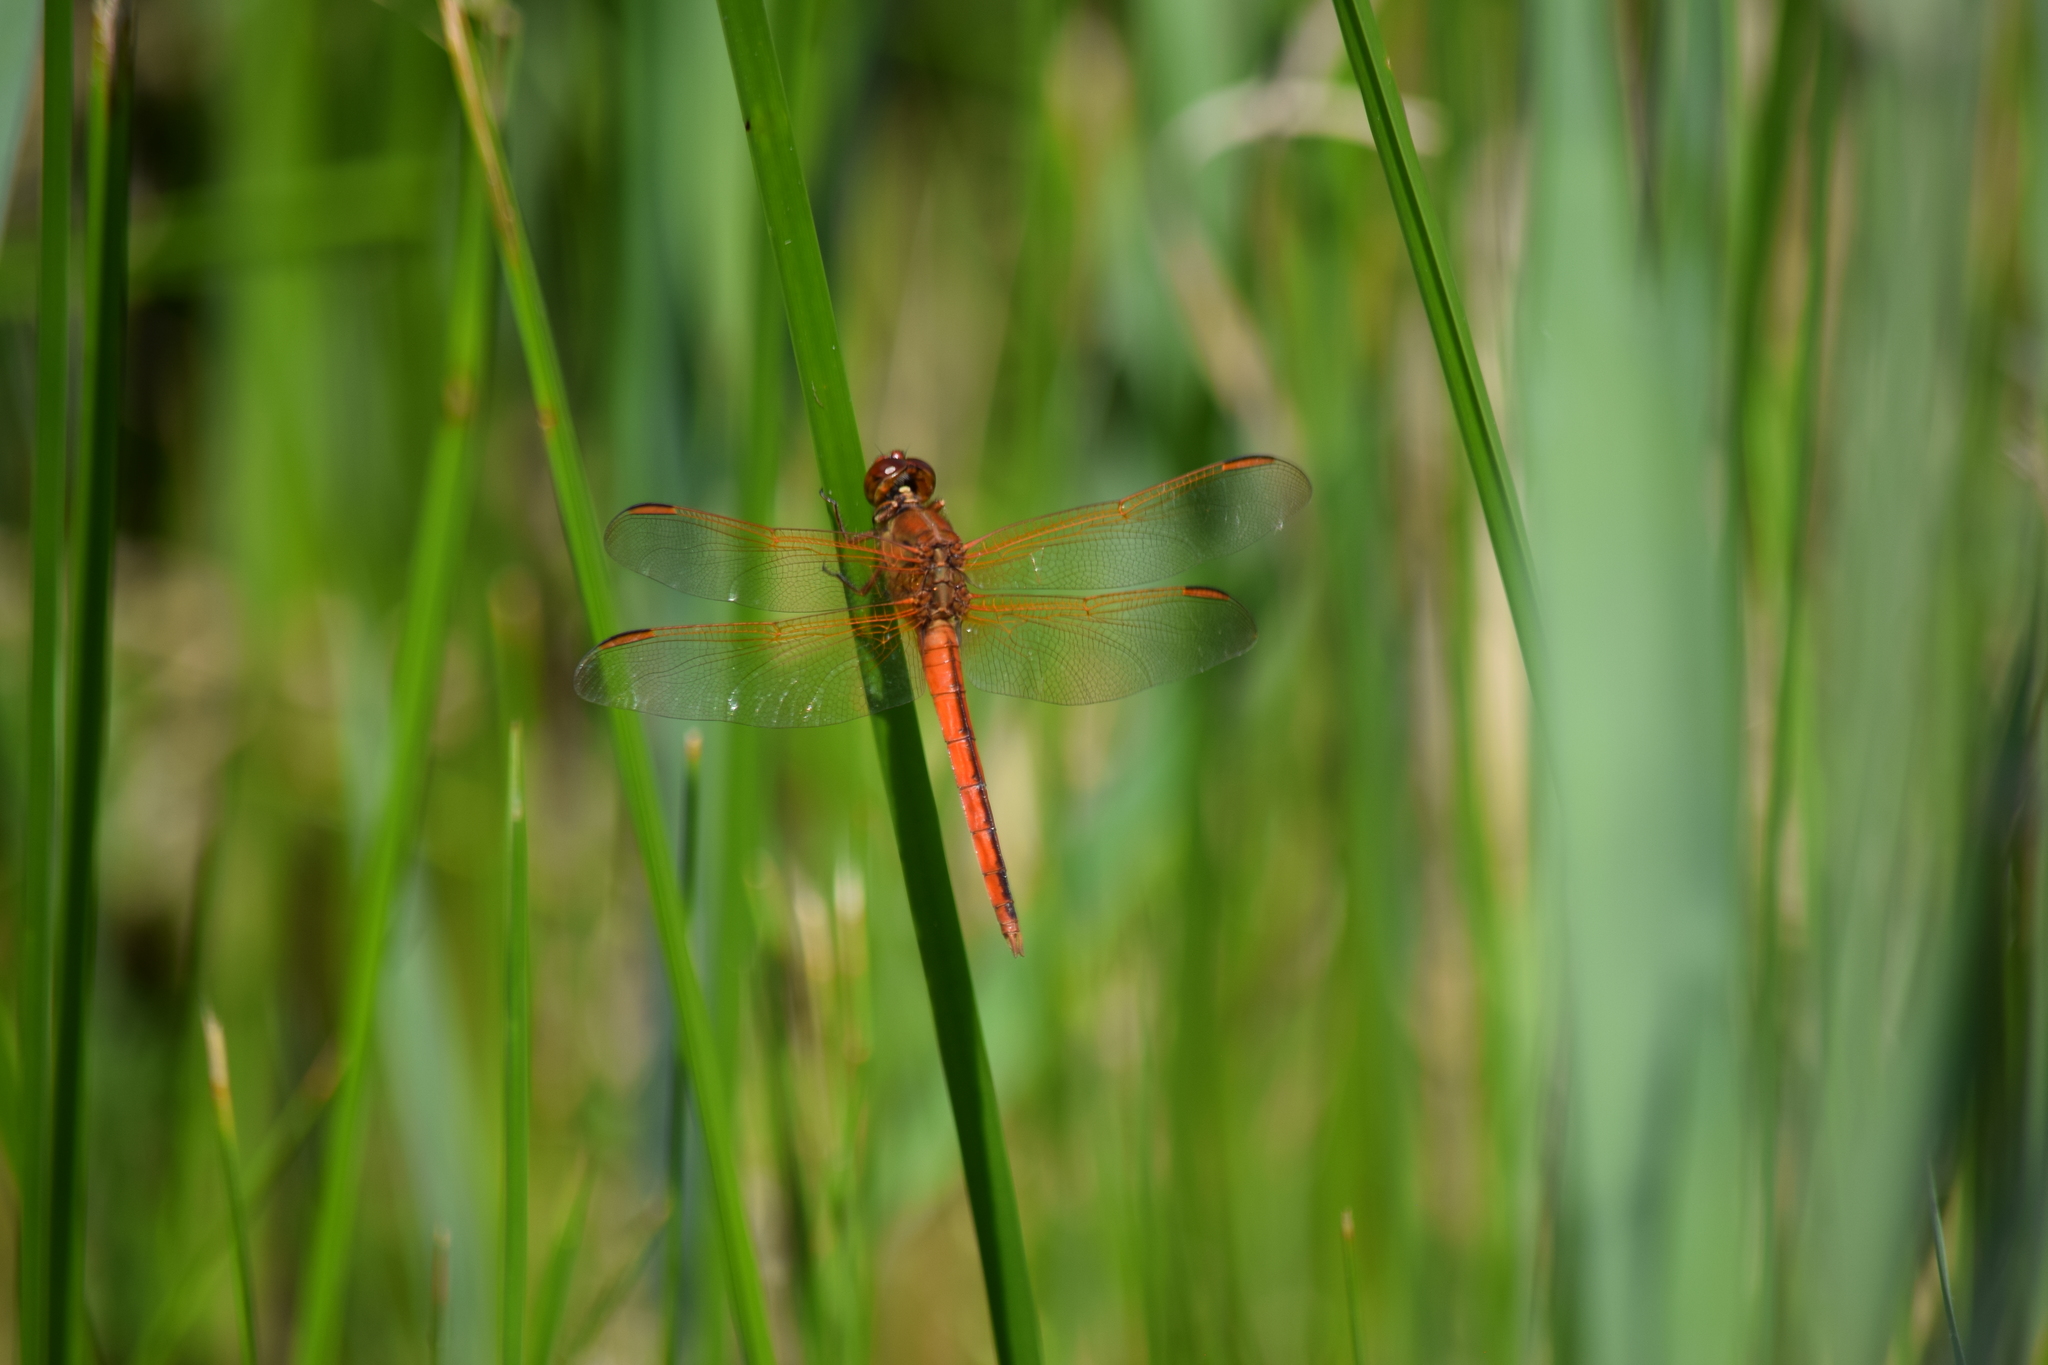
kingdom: Animalia
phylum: Arthropoda
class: Insecta
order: Odonata
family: Libellulidae
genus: Libellula
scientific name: Libellula needhami
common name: Needham's skimmer
